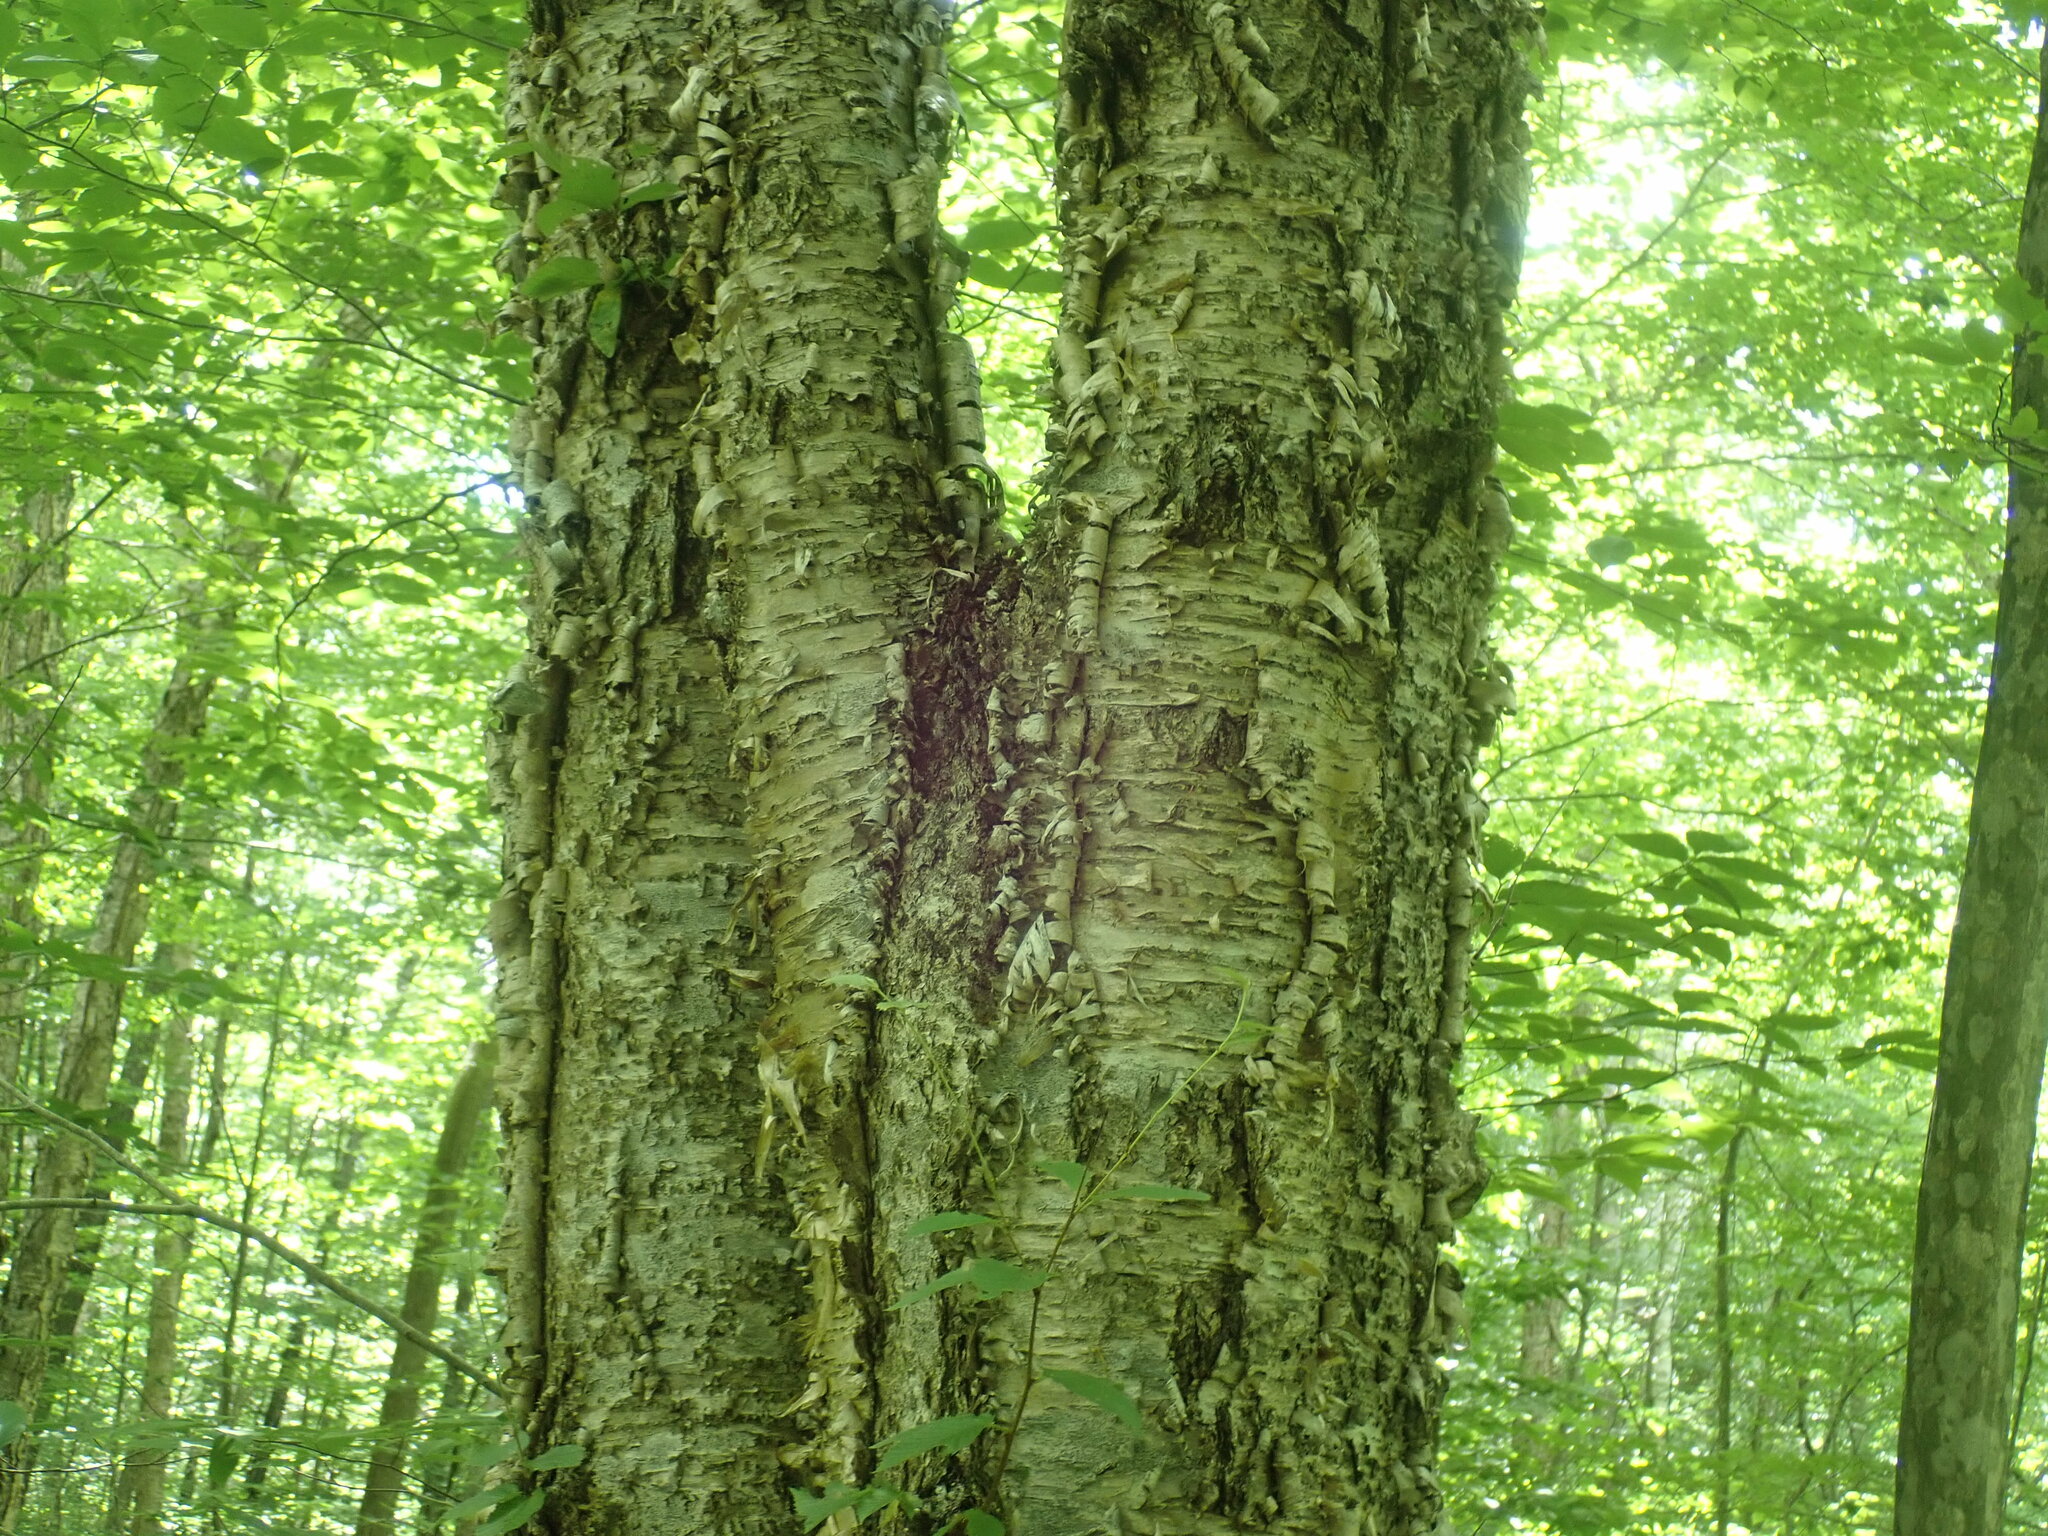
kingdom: Plantae
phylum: Tracheophyta
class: Magnoliopsida
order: Fagales
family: Betulaceae
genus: Betula
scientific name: Betula alleghaniensis
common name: Yellow birch
